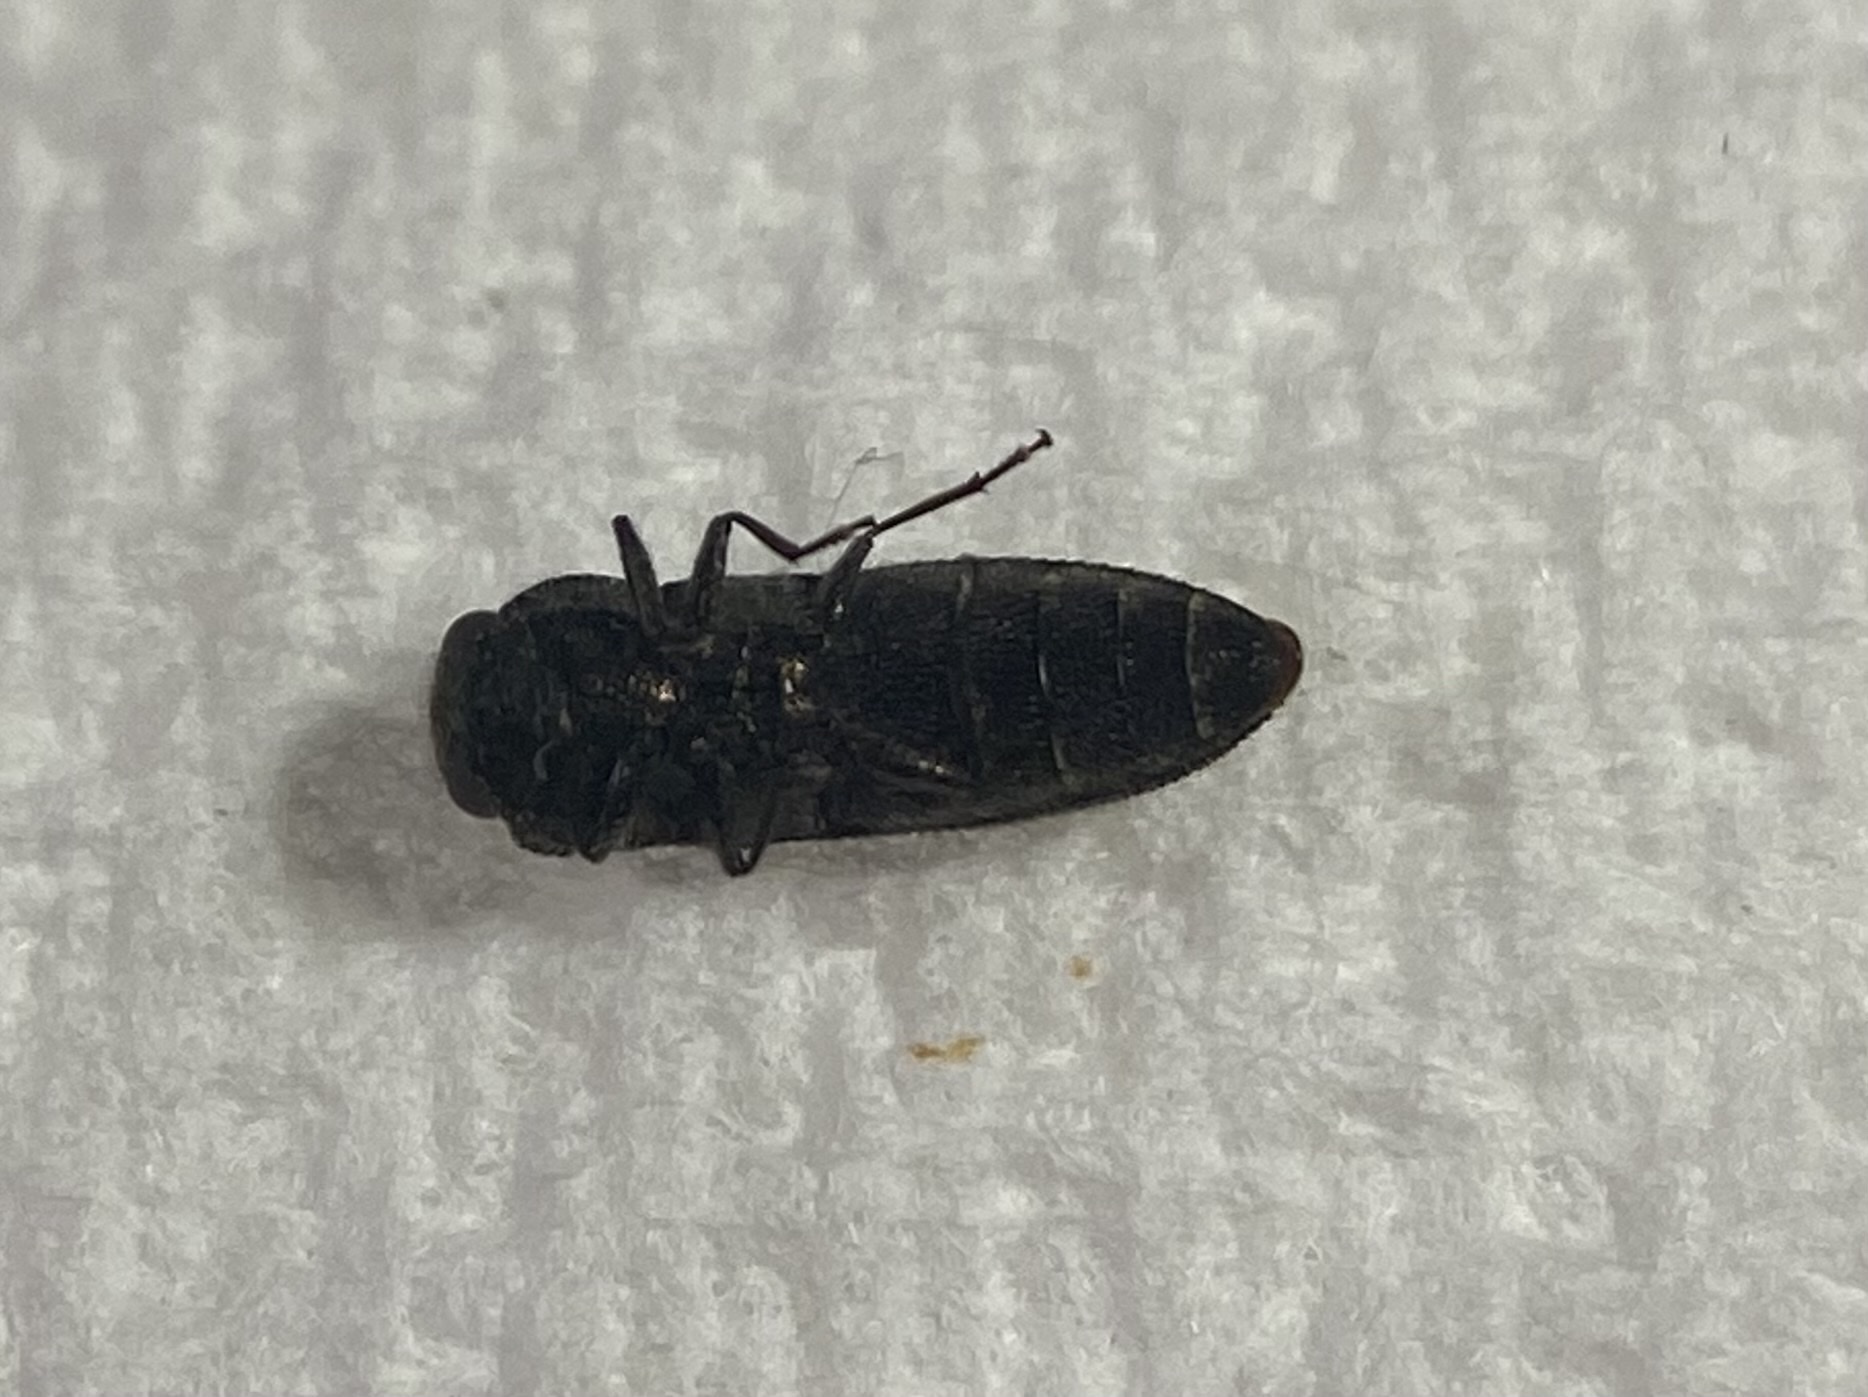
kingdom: Animalia
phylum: Arthropoda
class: Insecta
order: Coleoptera
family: Buprestidae
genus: Acmaeodera
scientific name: Acmaeodera ligulata
